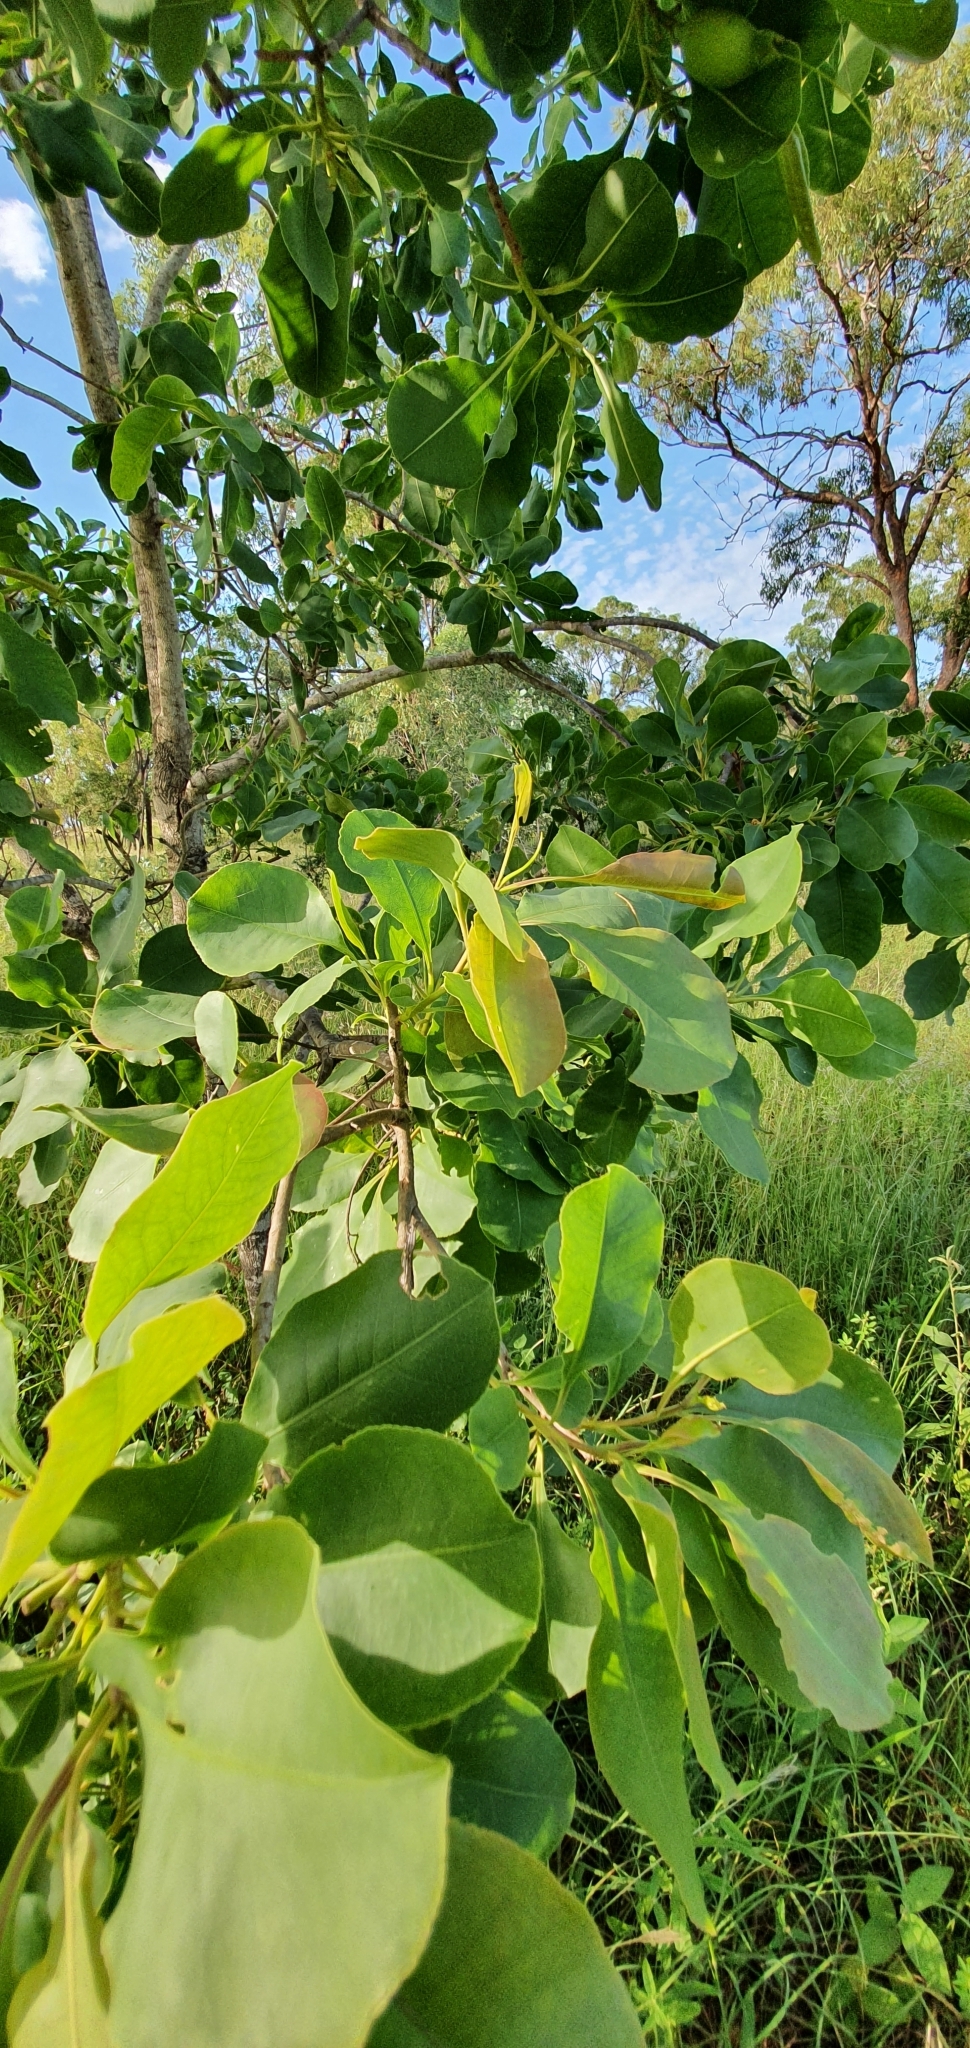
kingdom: Plantae
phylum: Tracheophyta
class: Magnoliopsida
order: Ericales
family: Lecythidaceae
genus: Planchonia
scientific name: Planchonia careya
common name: Cockatoo-apple
